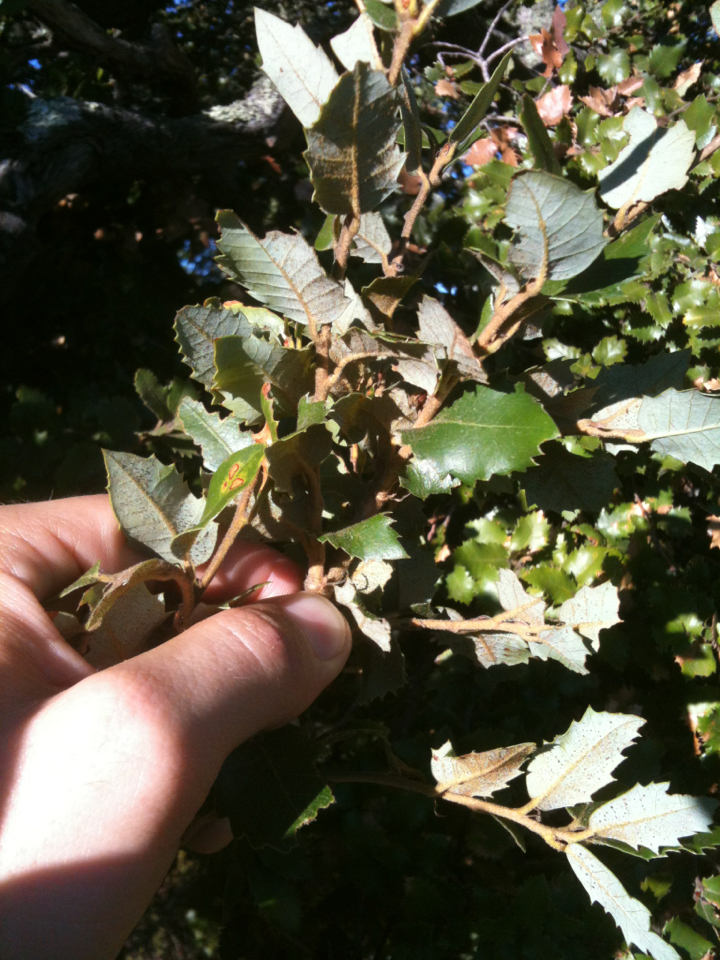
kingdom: Plantae
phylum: Tracheophyta
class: Magnoliopsida
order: Fagales
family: Fagaceae
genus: Quercus
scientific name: Quercus chrysolepis
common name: Canyon live oak
